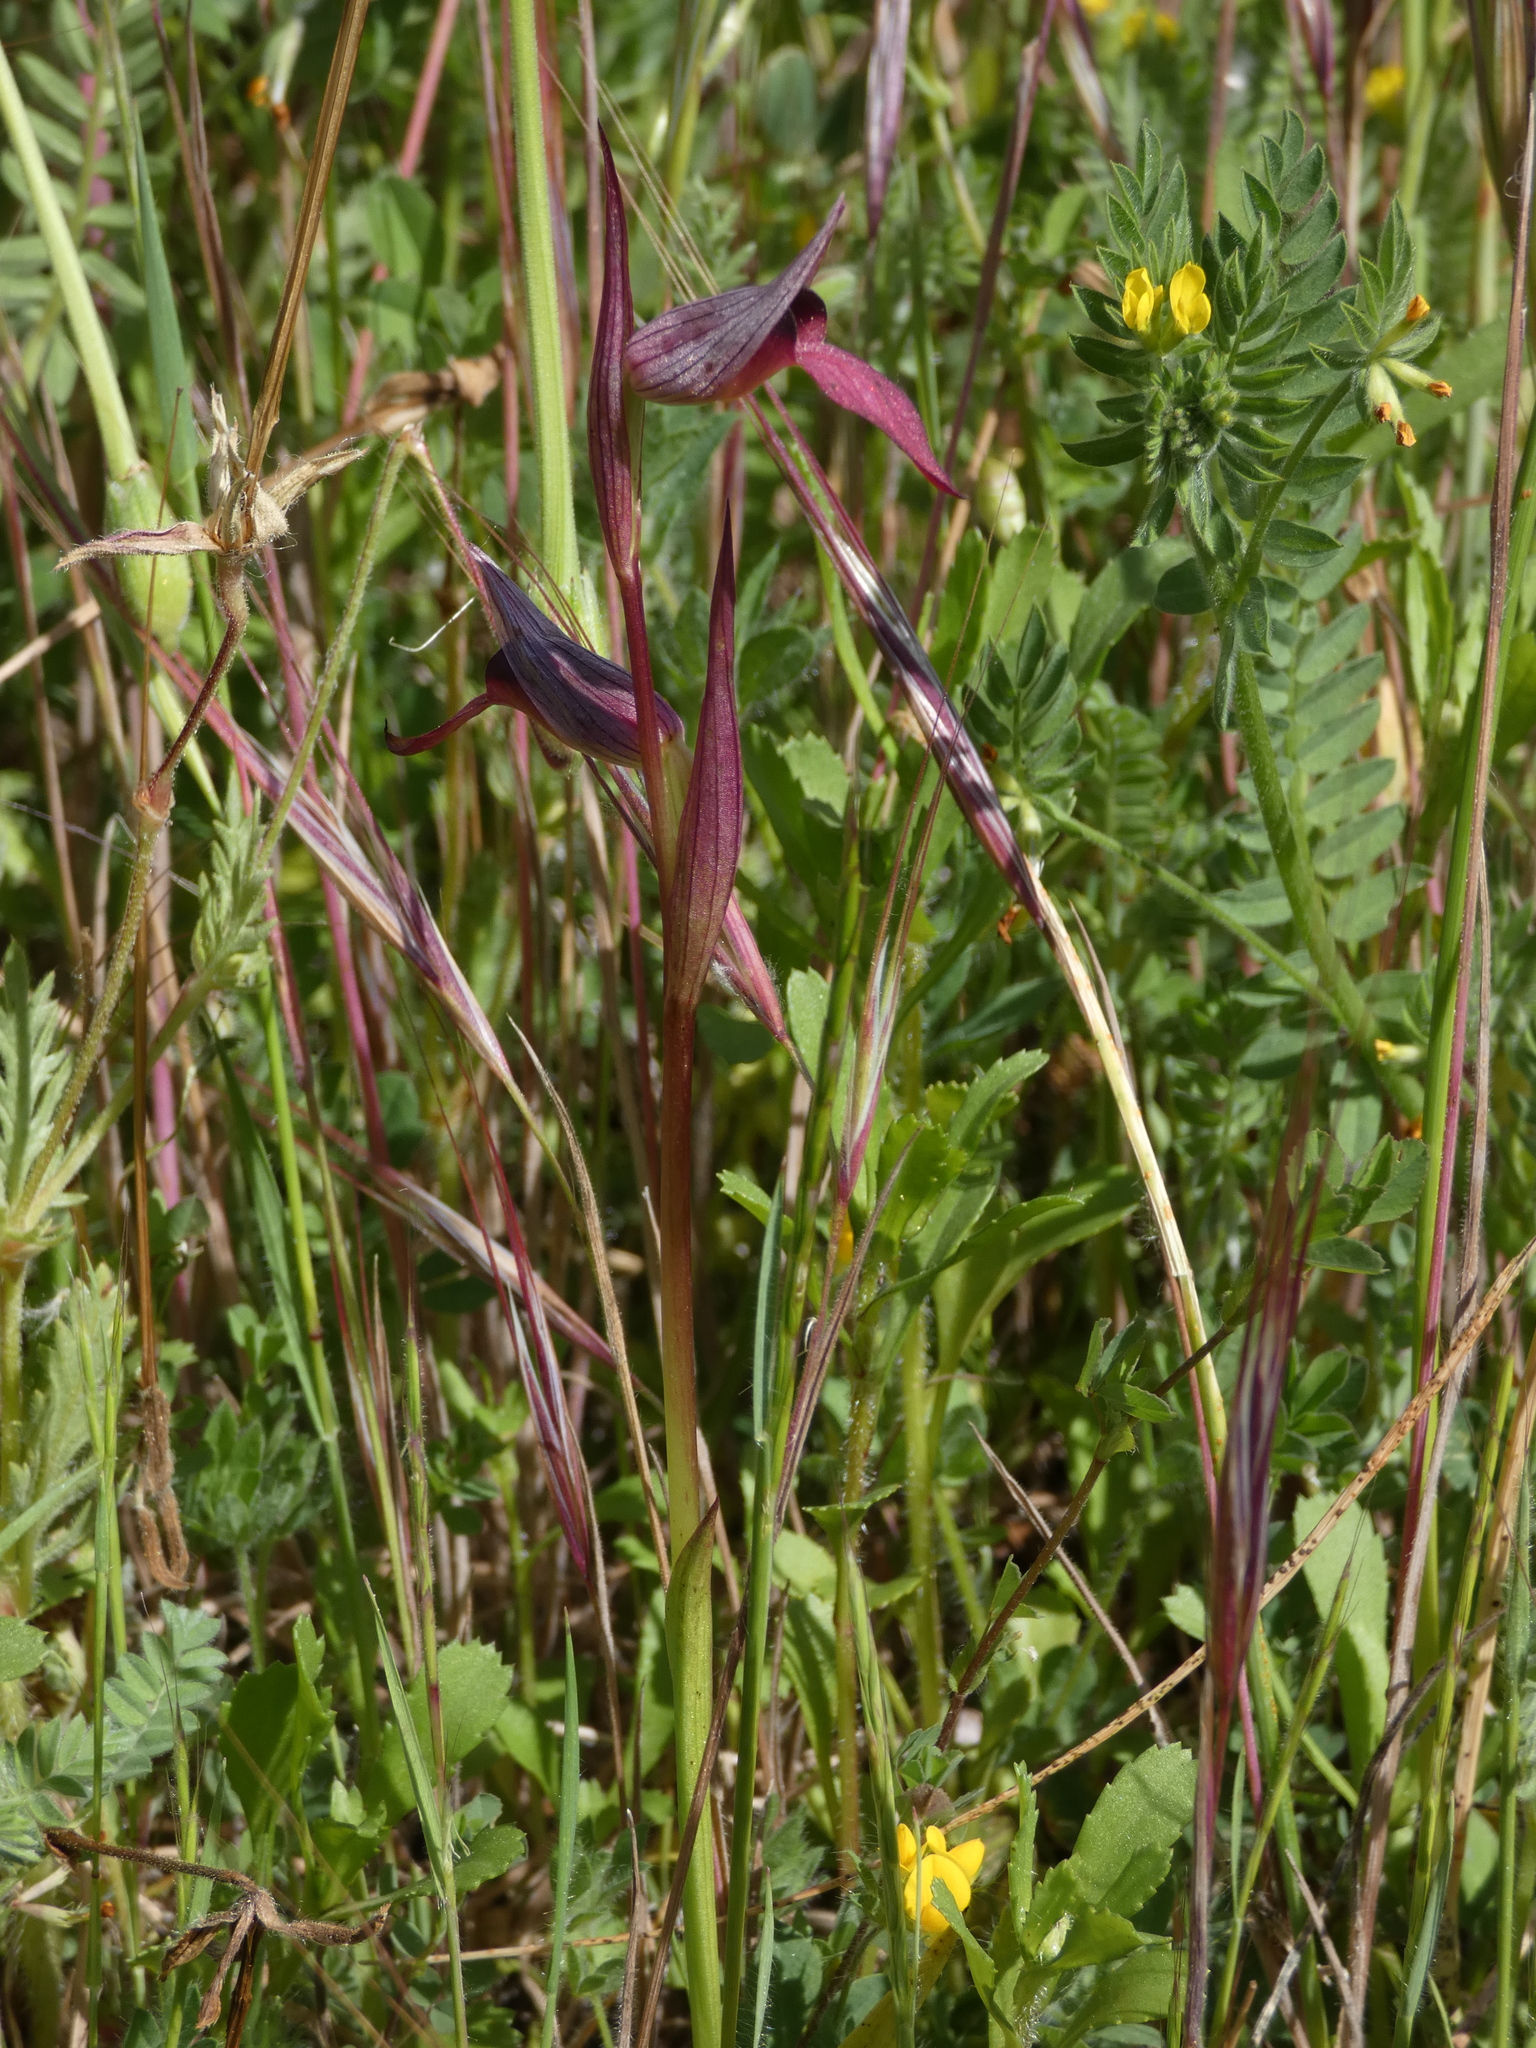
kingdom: Plantae
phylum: Tracheophyta
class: Liliopsida
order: Asparagales
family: Orchidaceae
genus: Serapias
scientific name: Serapias lingua
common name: Tongue-orchid
